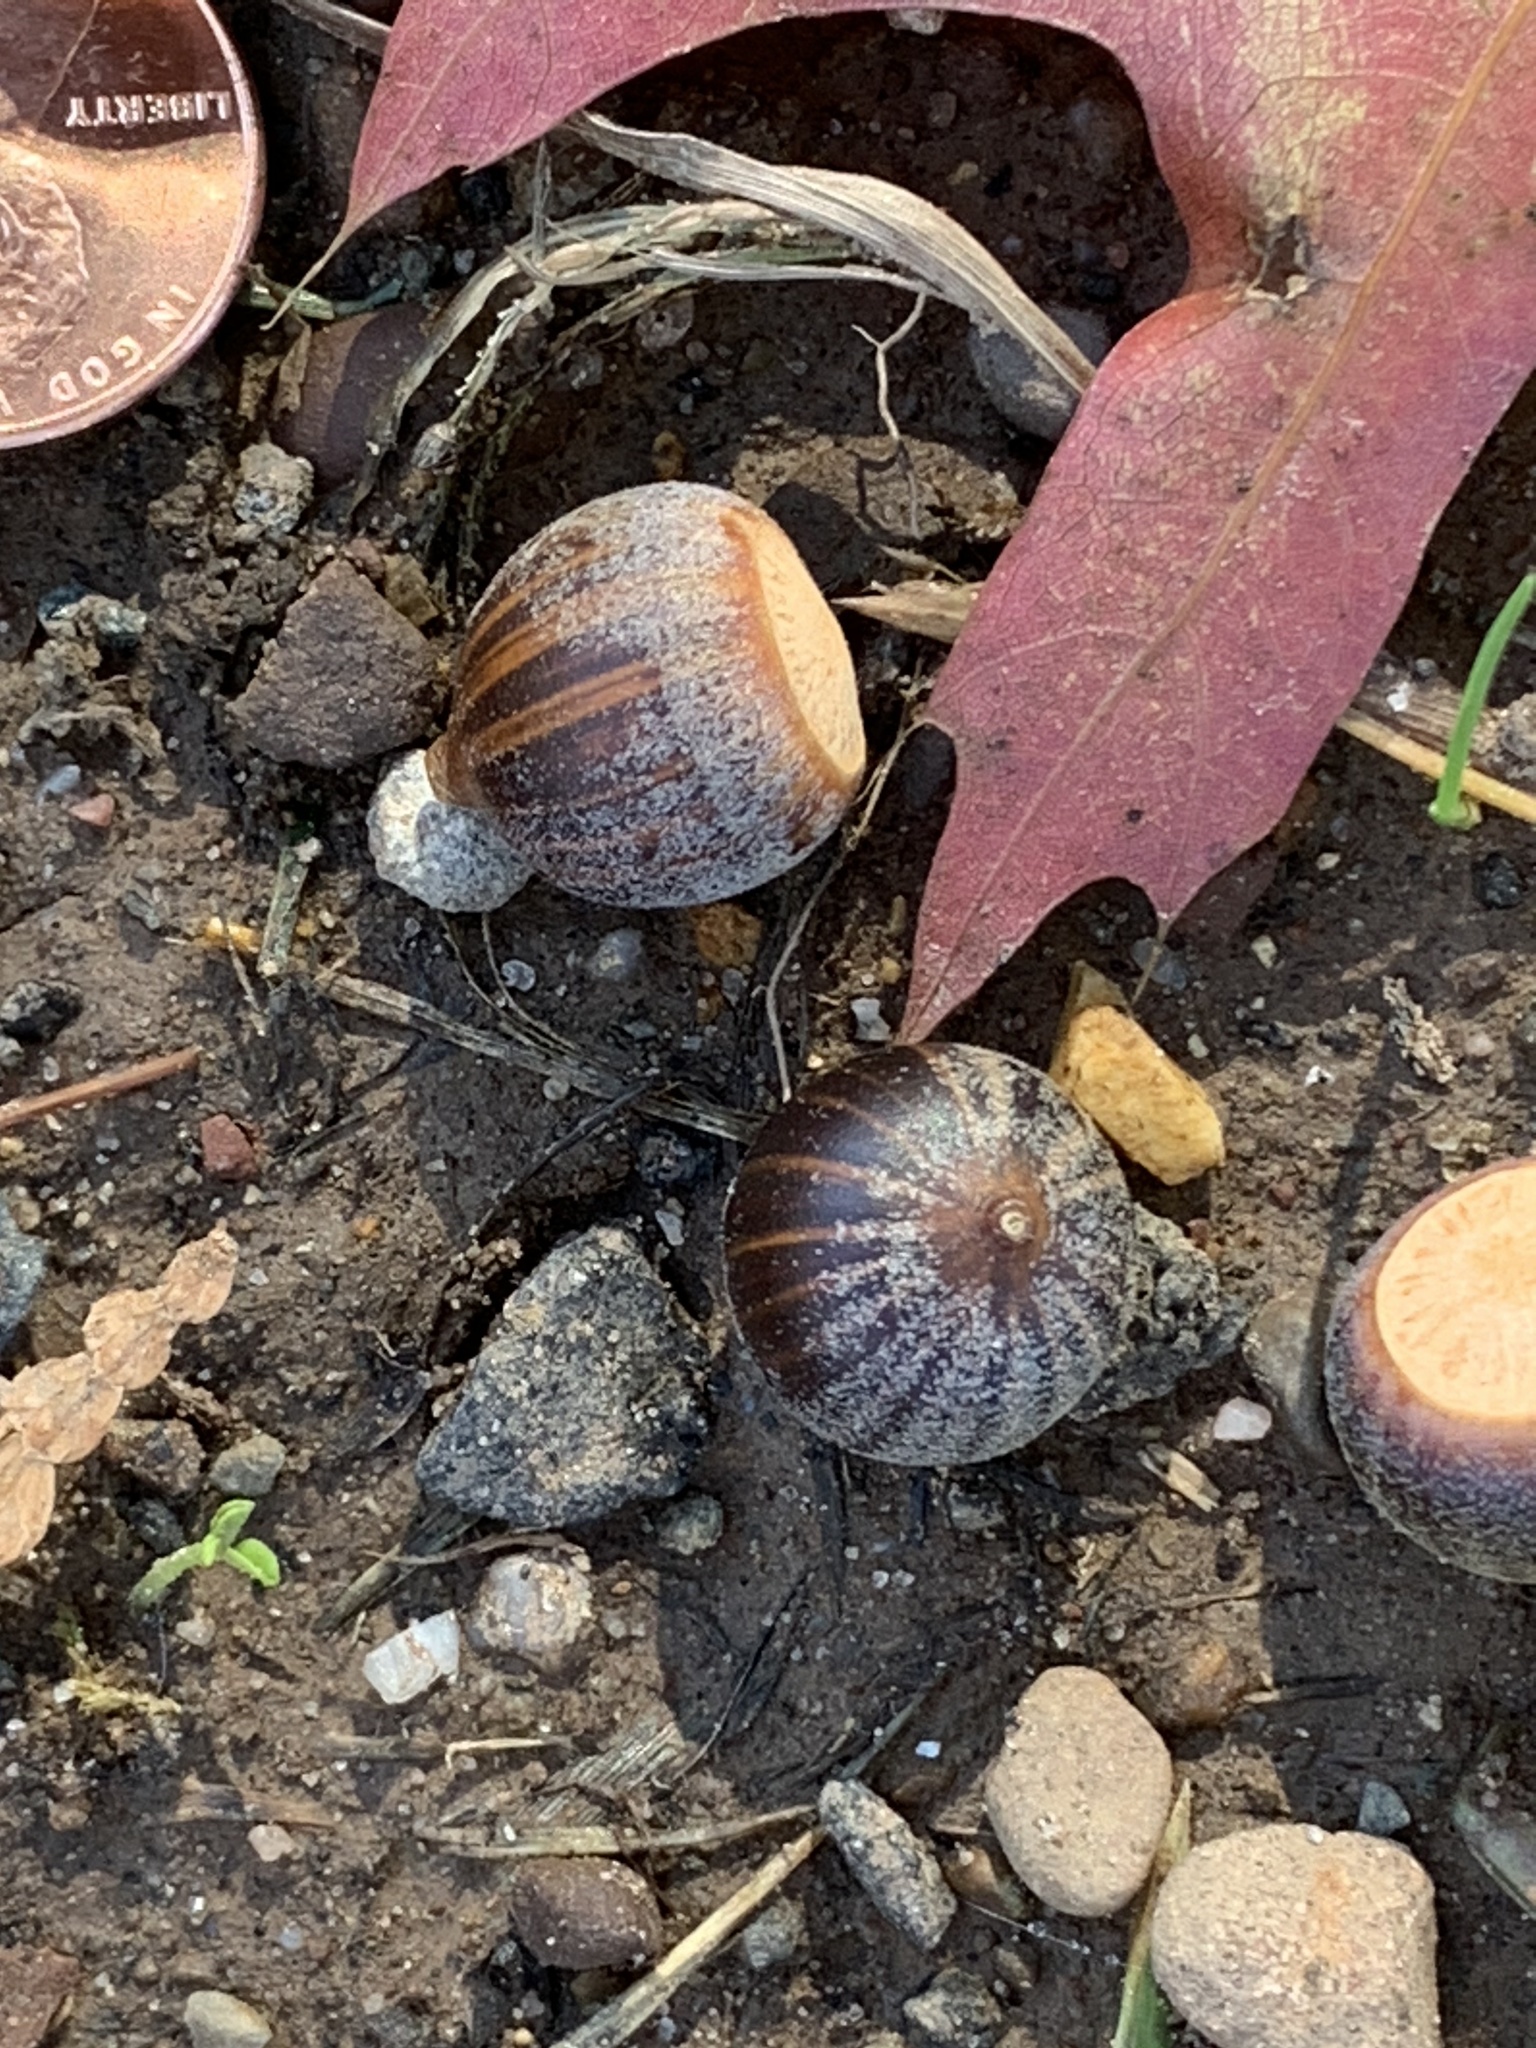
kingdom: Plantae
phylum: Tracheophyta
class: Magnoliopsida
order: Fagales
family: Fagaceae
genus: Quercus
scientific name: Quercus palustris
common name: Pin oak
